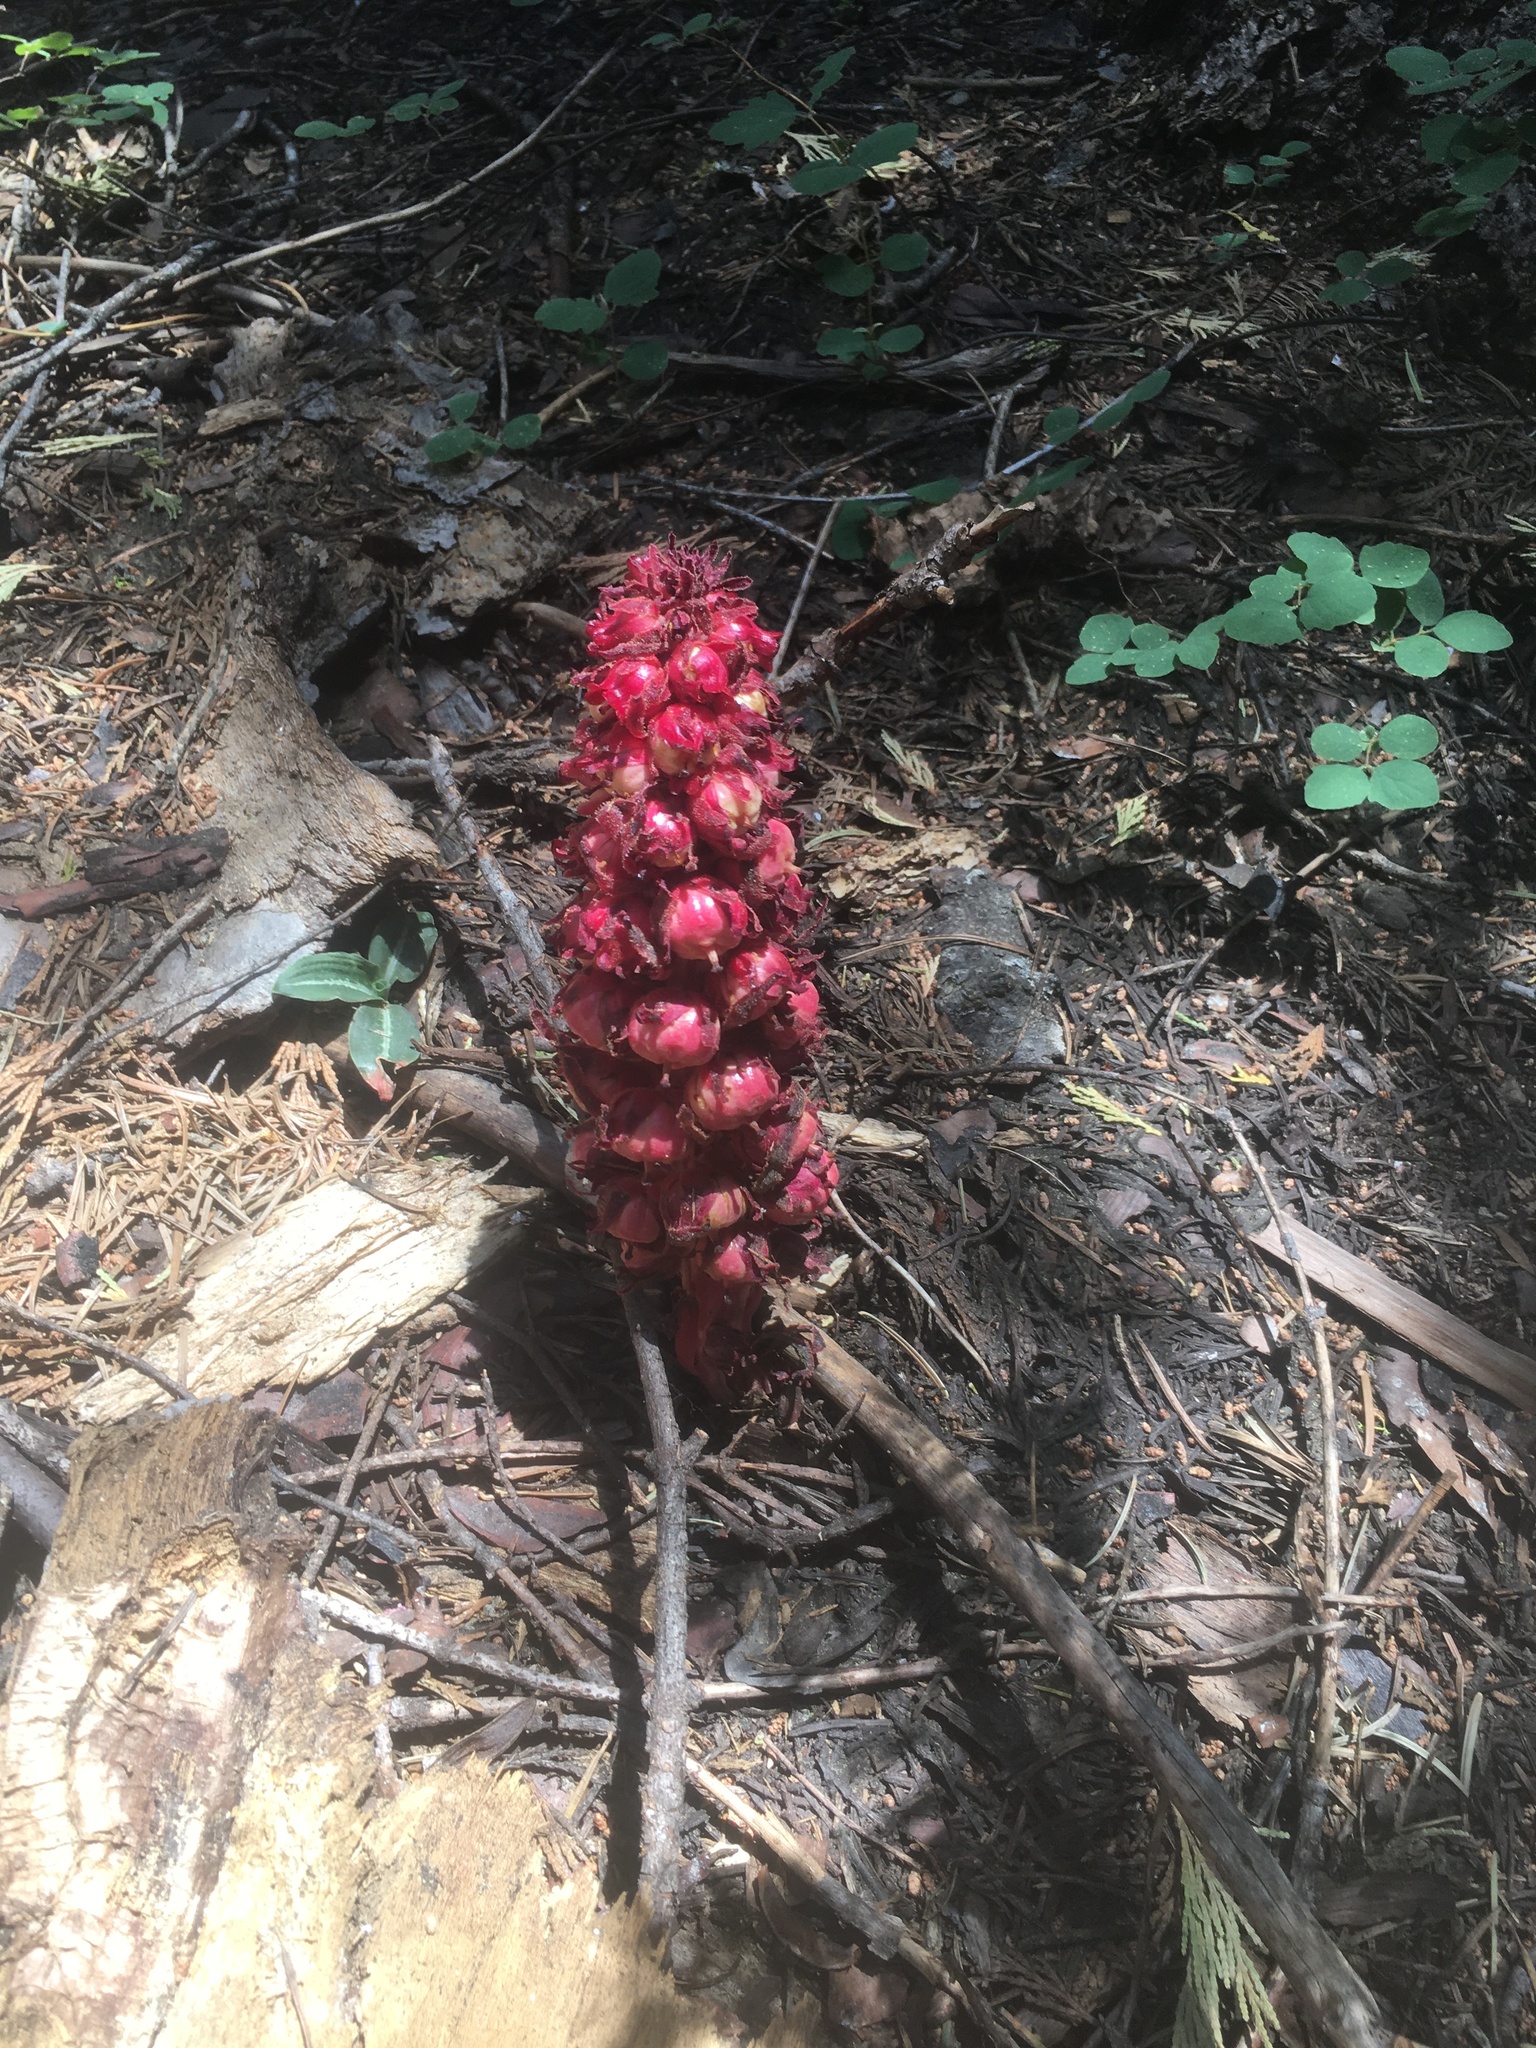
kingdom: Plantae
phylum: Tracheophyta
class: Magnoliopsida
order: Ericales
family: Ericaceae
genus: Sarcodes
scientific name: Sarcodes sanguinea
